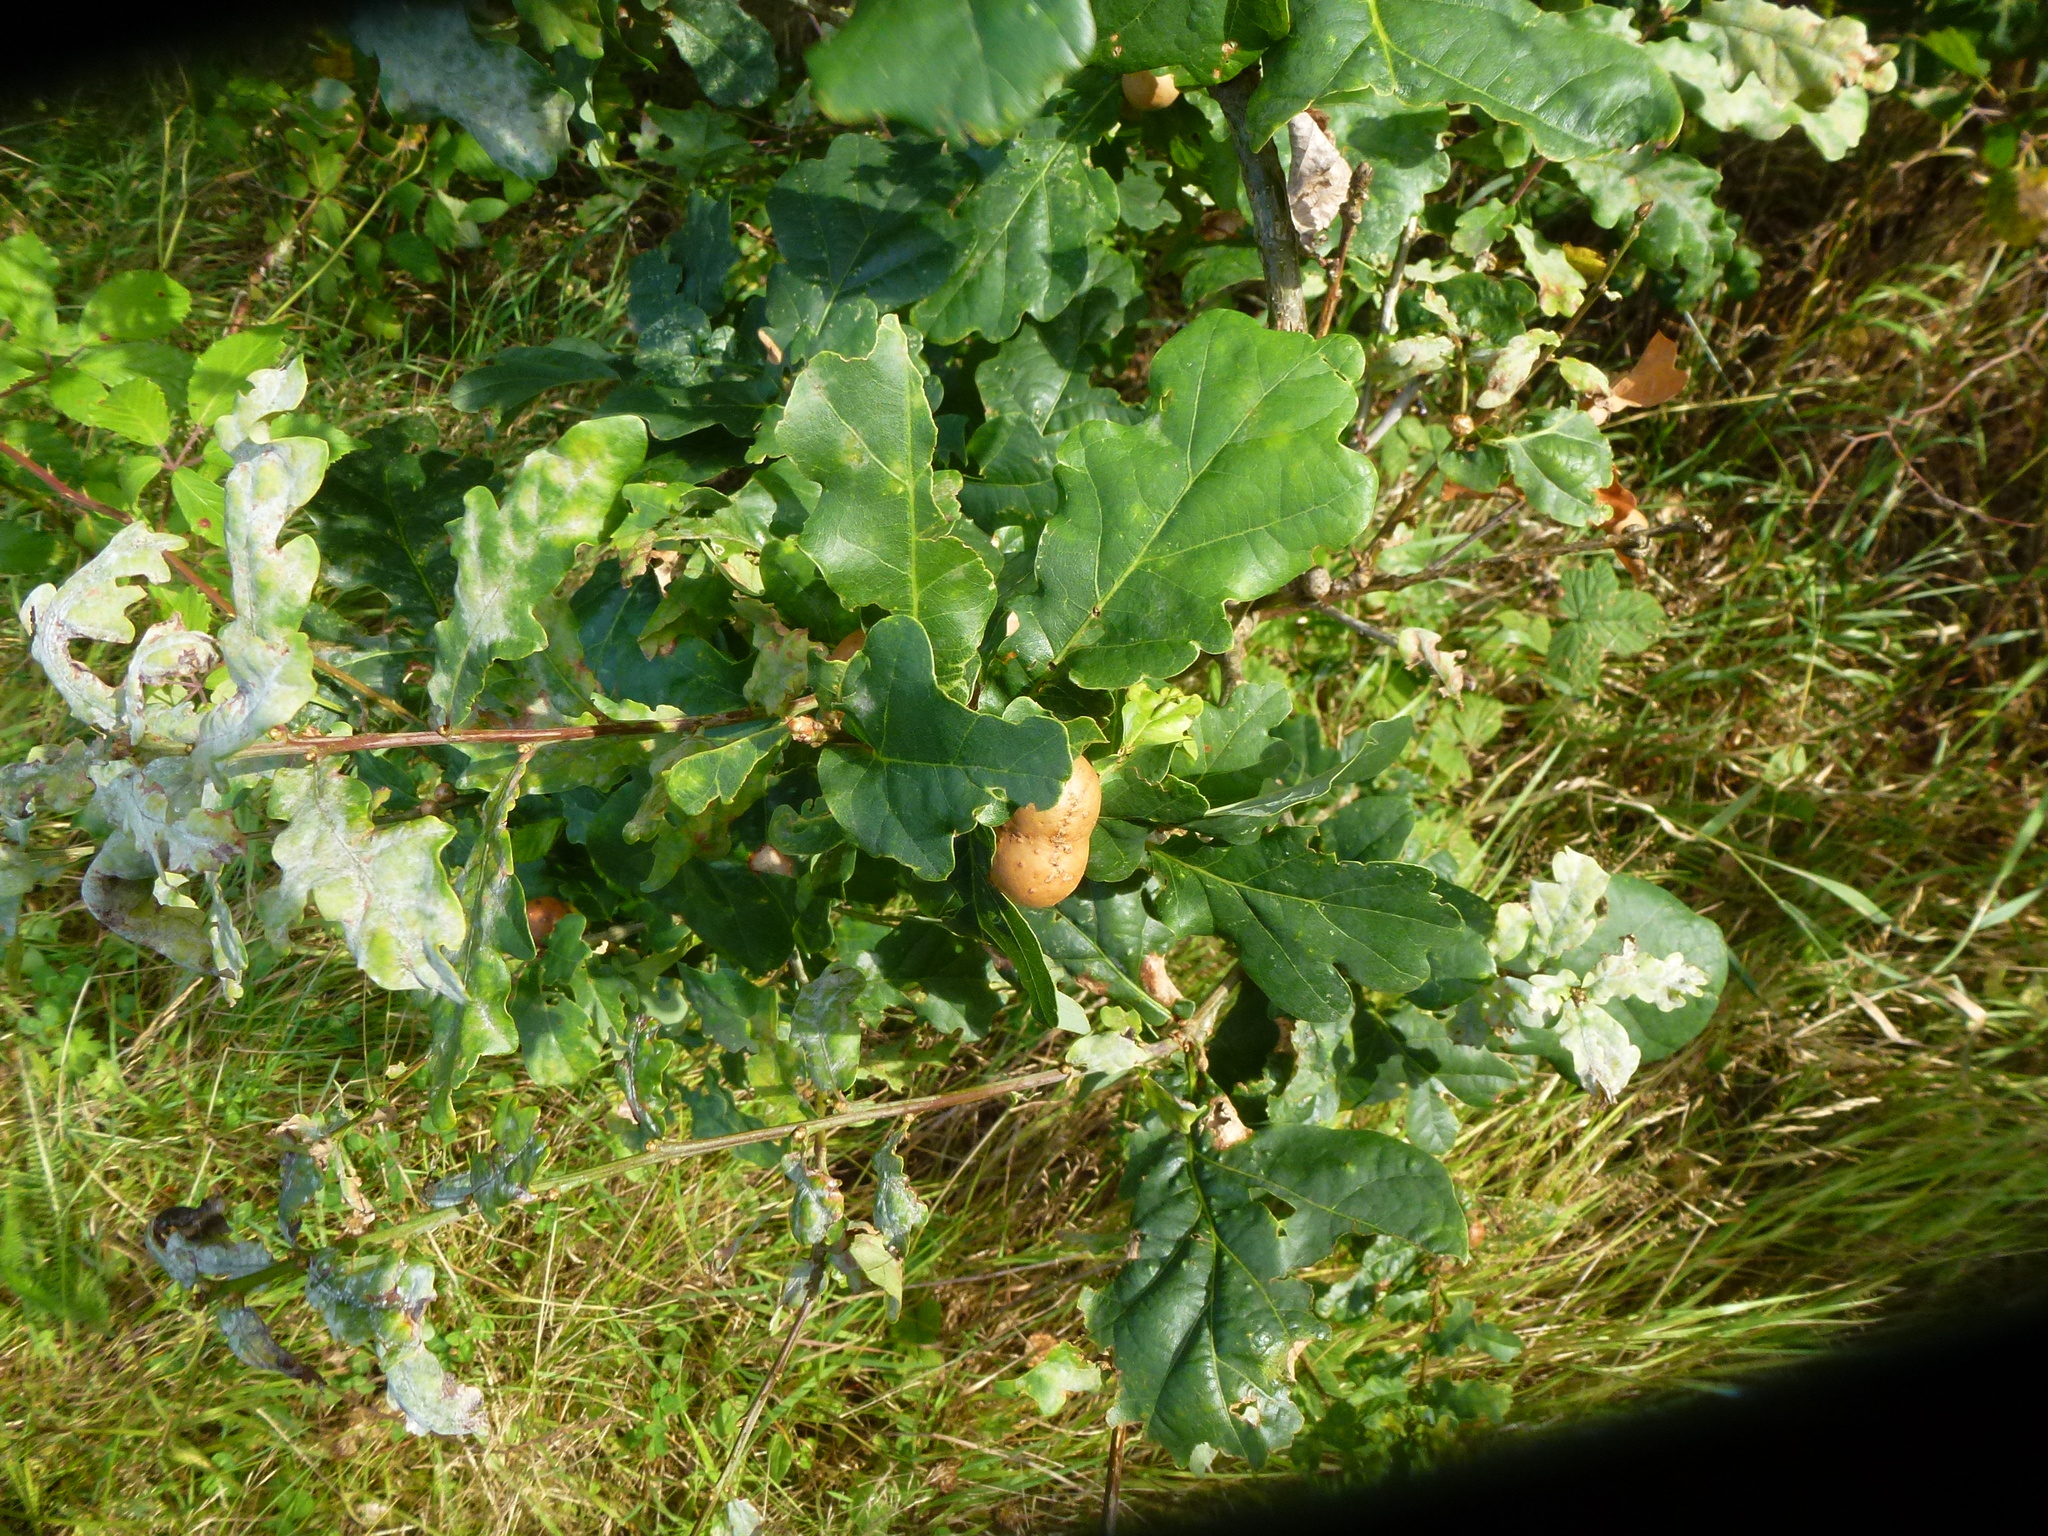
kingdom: Plantae
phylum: Tracheophyta
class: Magnoliopsida
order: Fagales
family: Fagaceae
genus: Quercus
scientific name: Quercus robur
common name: Pedunculate oak
